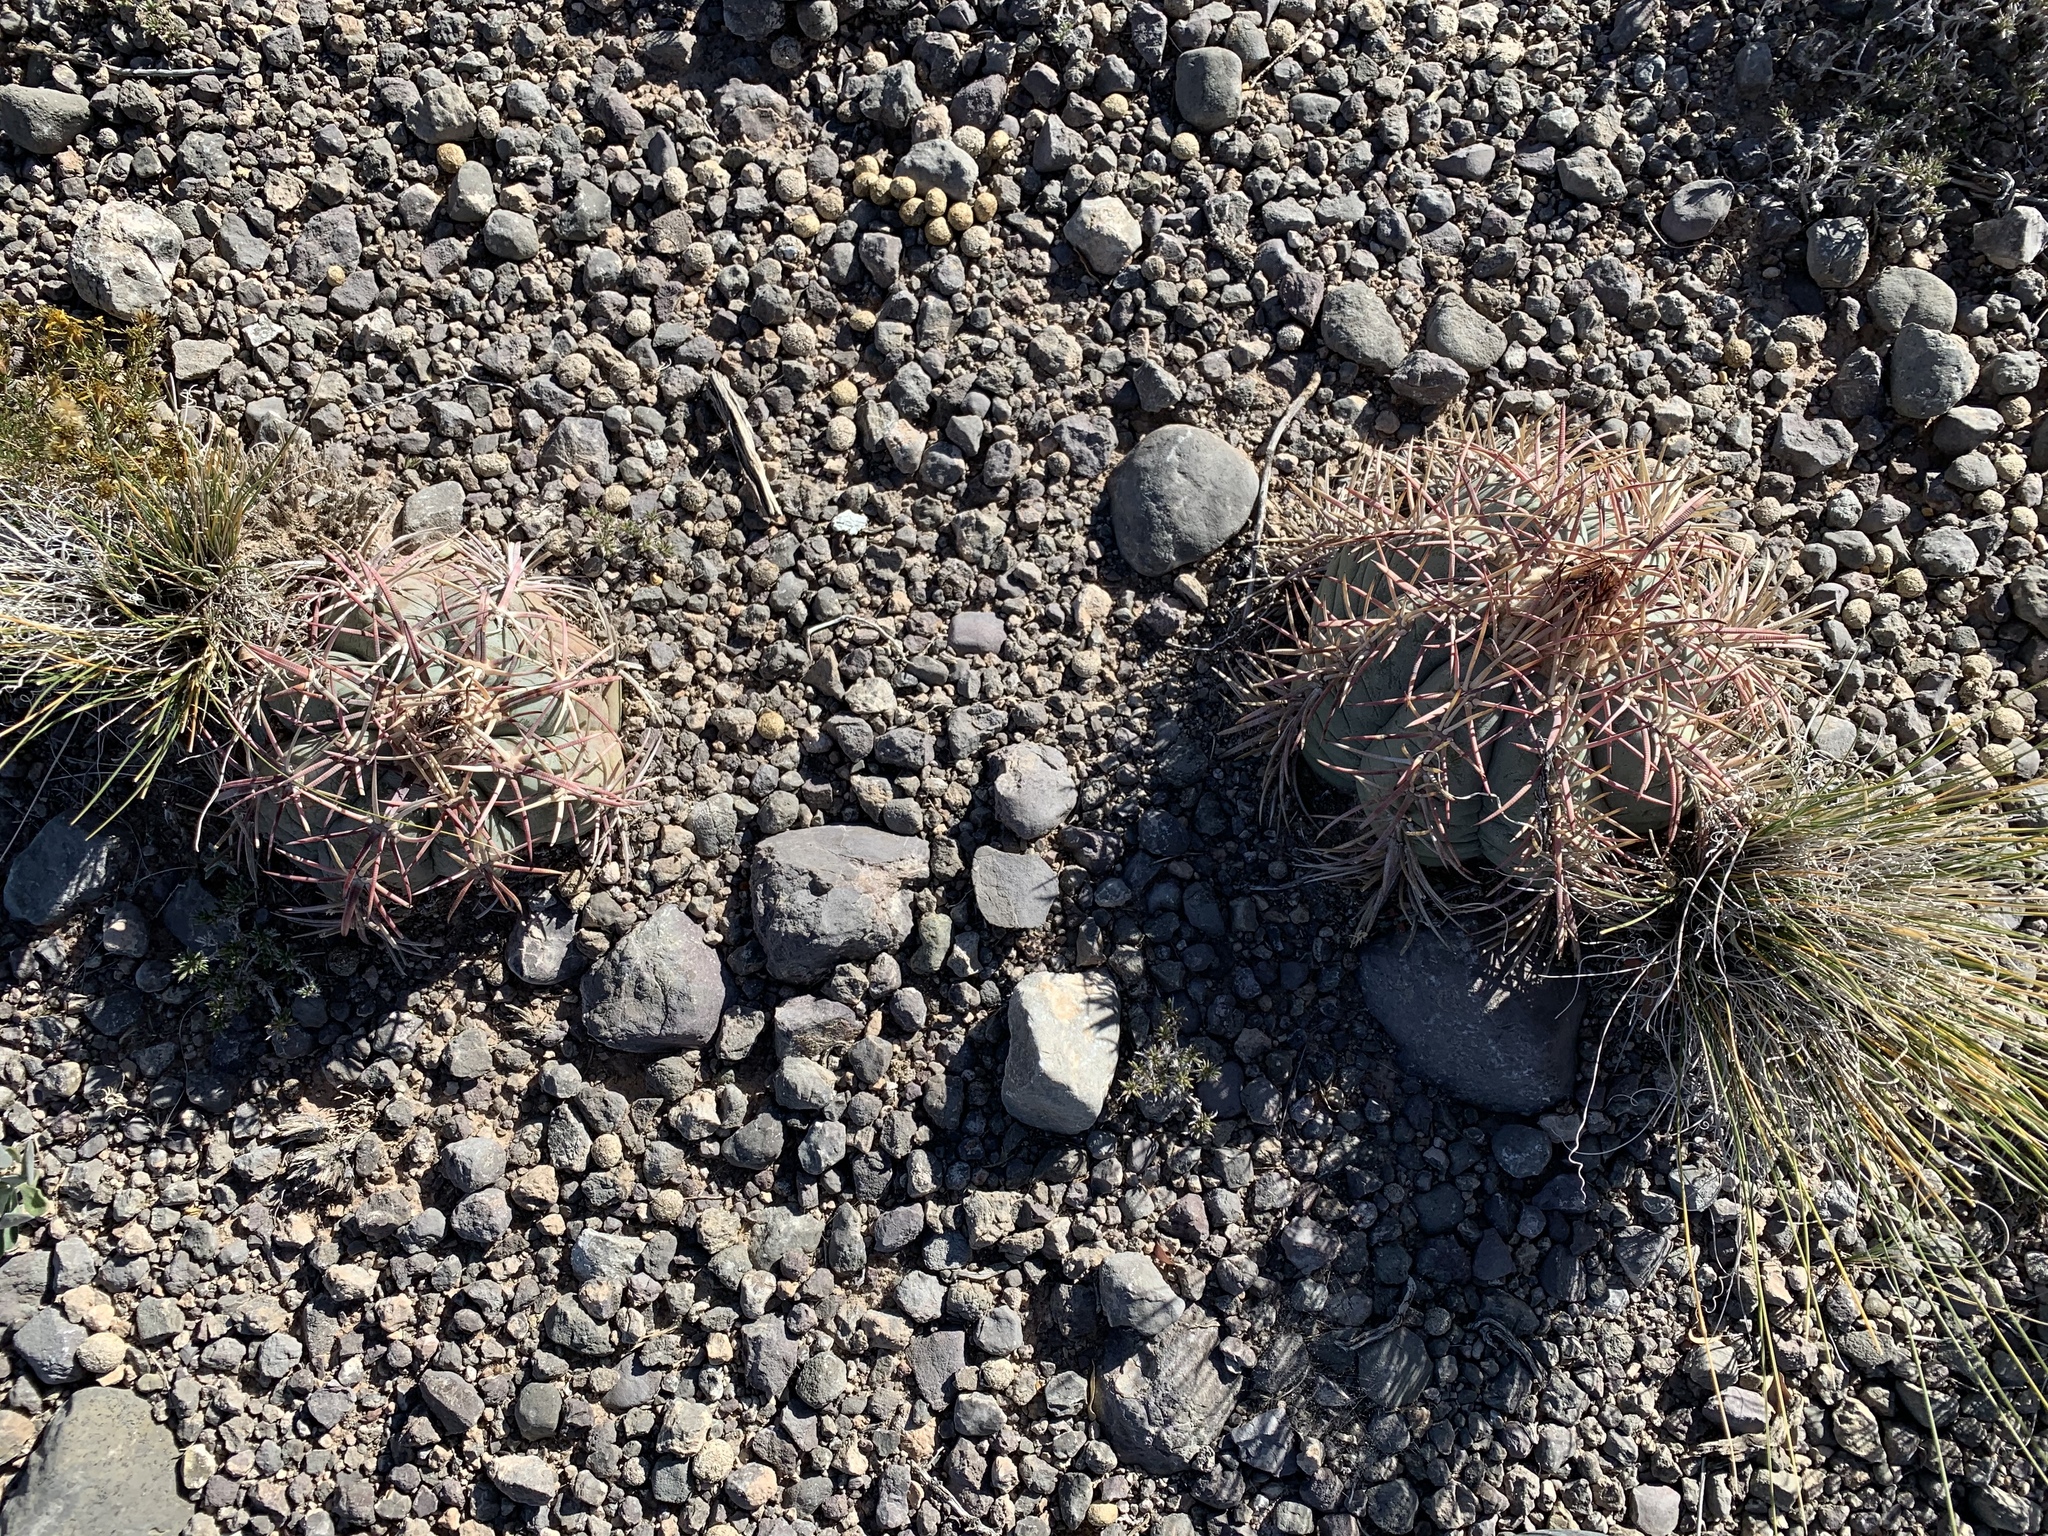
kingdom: Plantae
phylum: Tracheophyta
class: Magnoliopsida
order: Caryophyllales
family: Cactaceae
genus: Echinocactus
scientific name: Echinocactus horizonthalonius
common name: Devilshead
